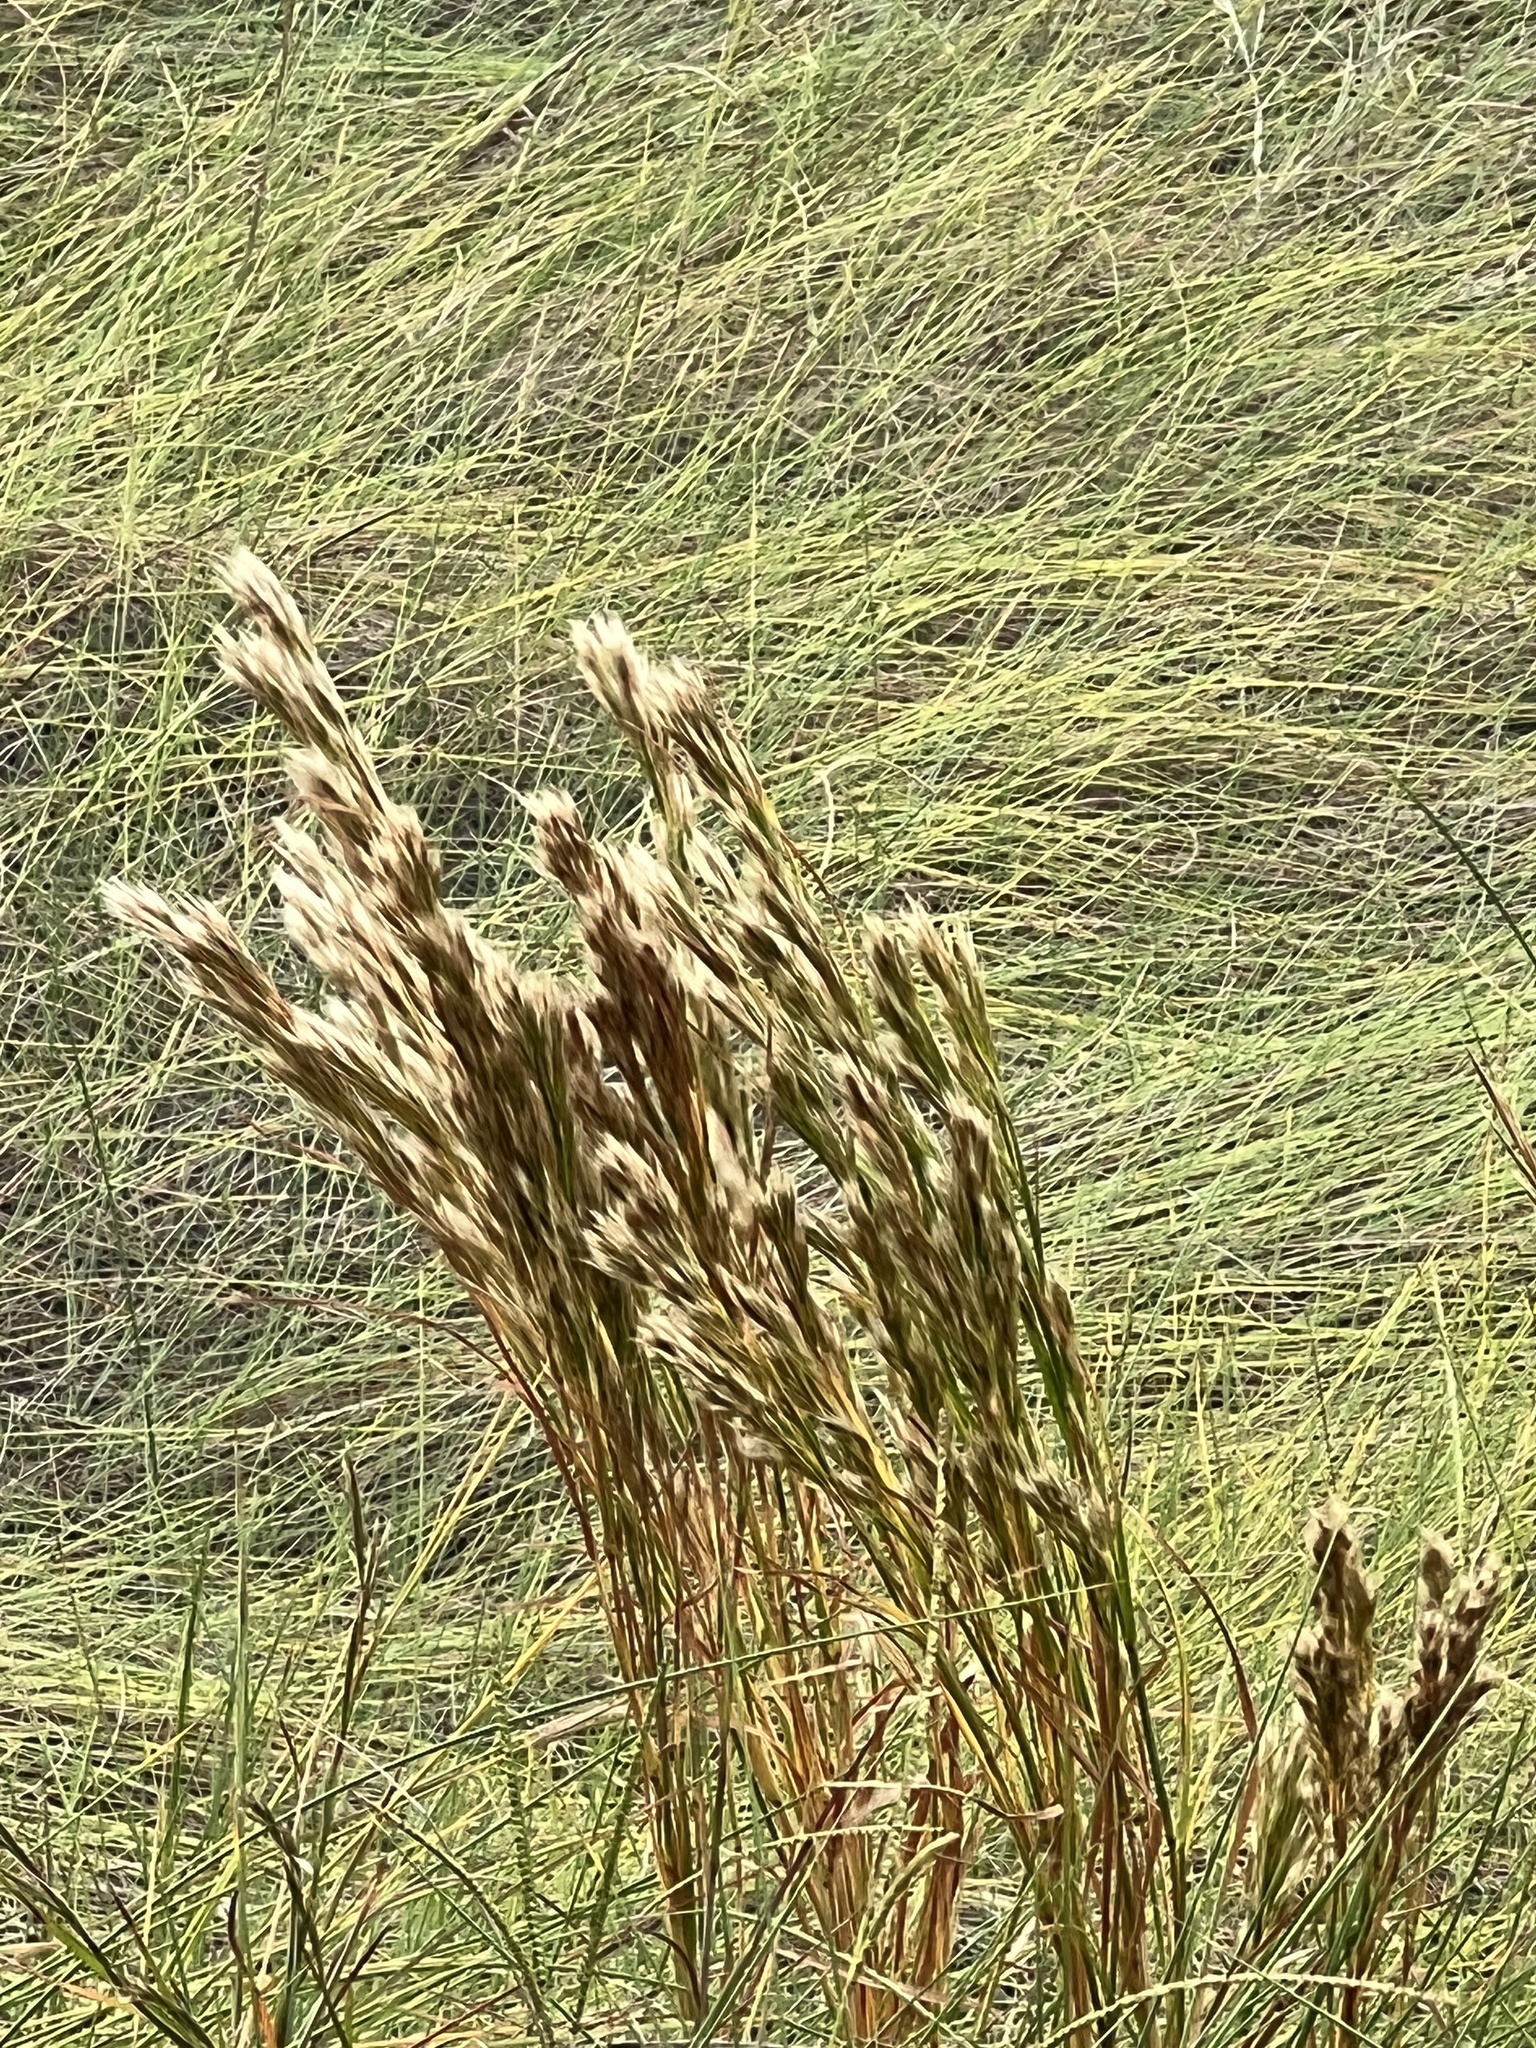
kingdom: Plantae
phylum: Tracheophyta
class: Liliopsida
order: Poales
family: Poaceae
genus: Andropogon
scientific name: Andropogon tenuispatheus
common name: Bushy bluestem
